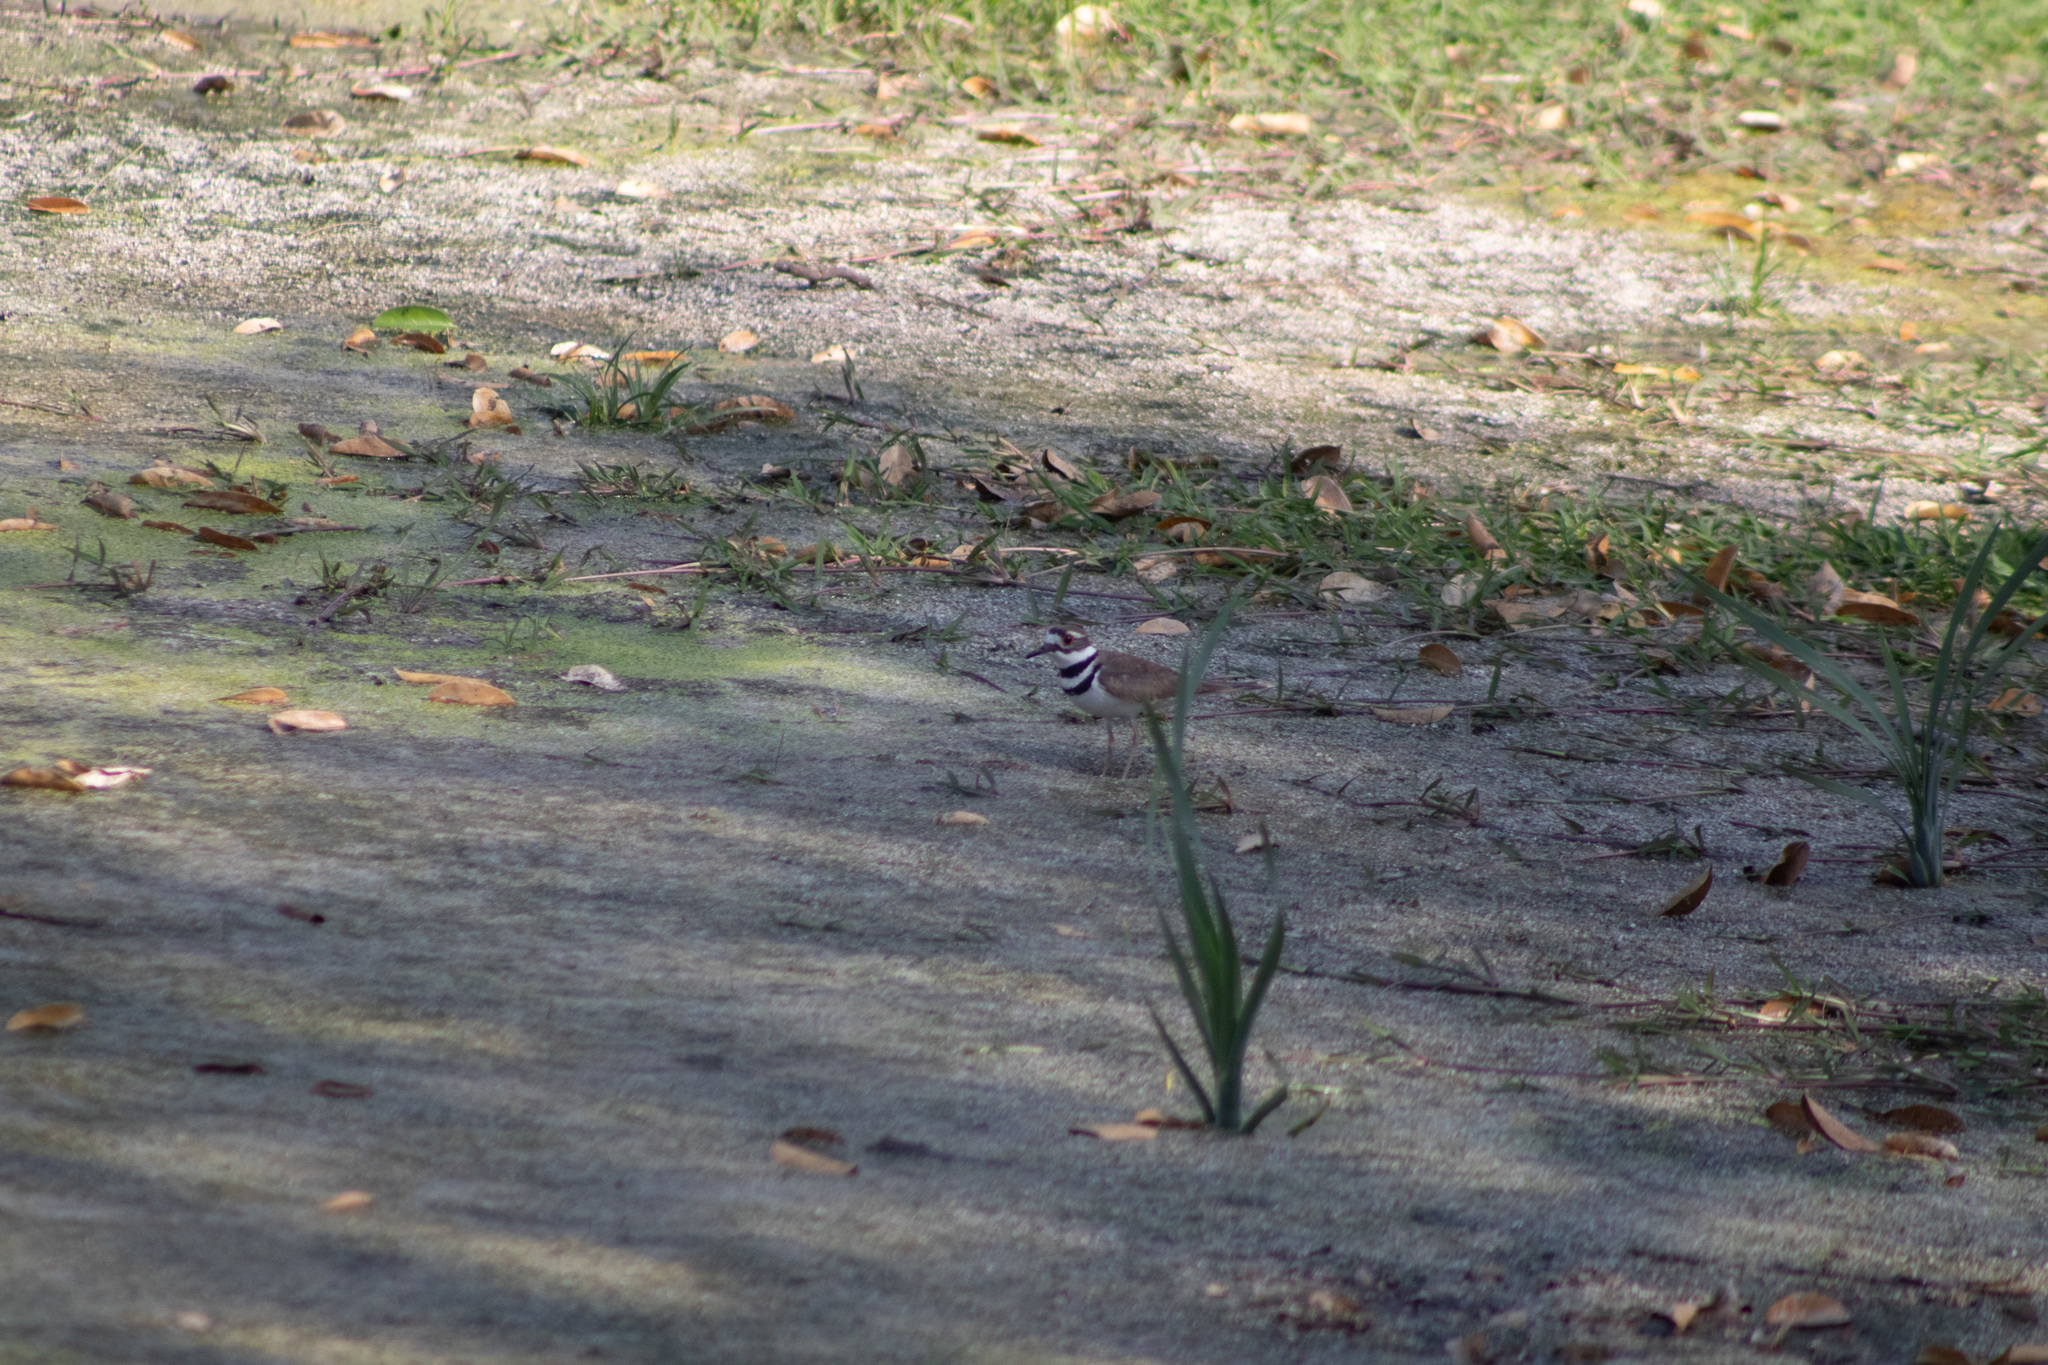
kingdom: Animalia
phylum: Chordata
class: Aves
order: Charadriiformes
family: Charadriidae
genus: Charadrius
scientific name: Charadrius vociferus
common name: Killdeer
